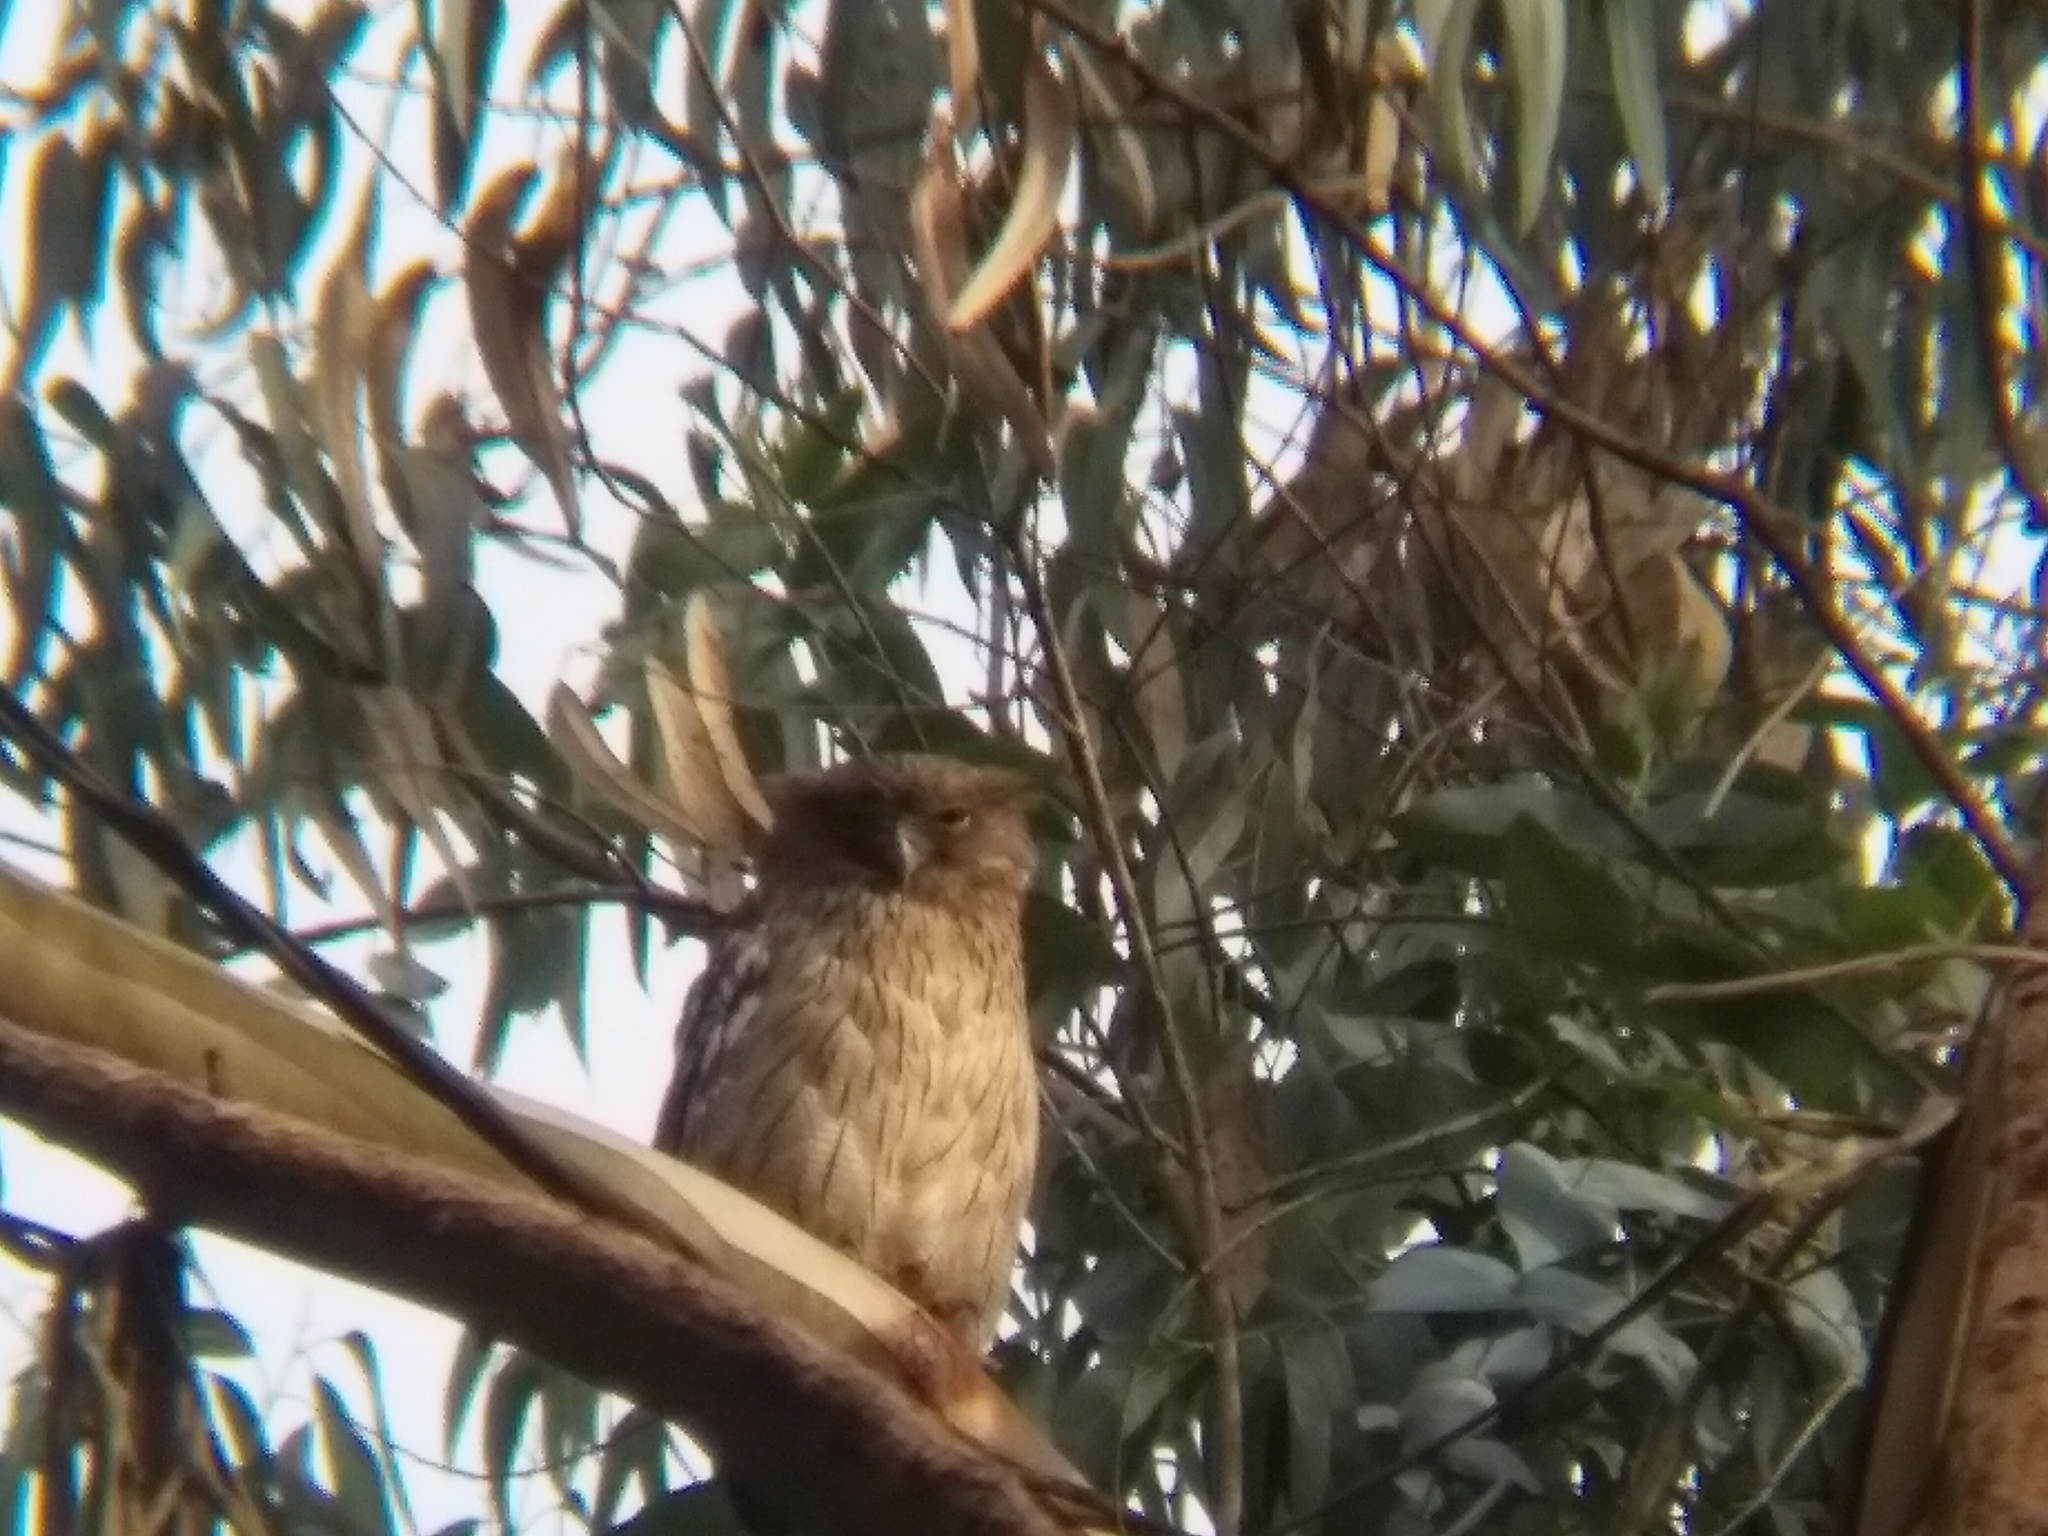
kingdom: Animalia
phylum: Chordata
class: Aves
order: Strigiformes
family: Strigidae
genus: Ketupa
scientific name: Ketupa zeylonensis
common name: Brown fish owl
